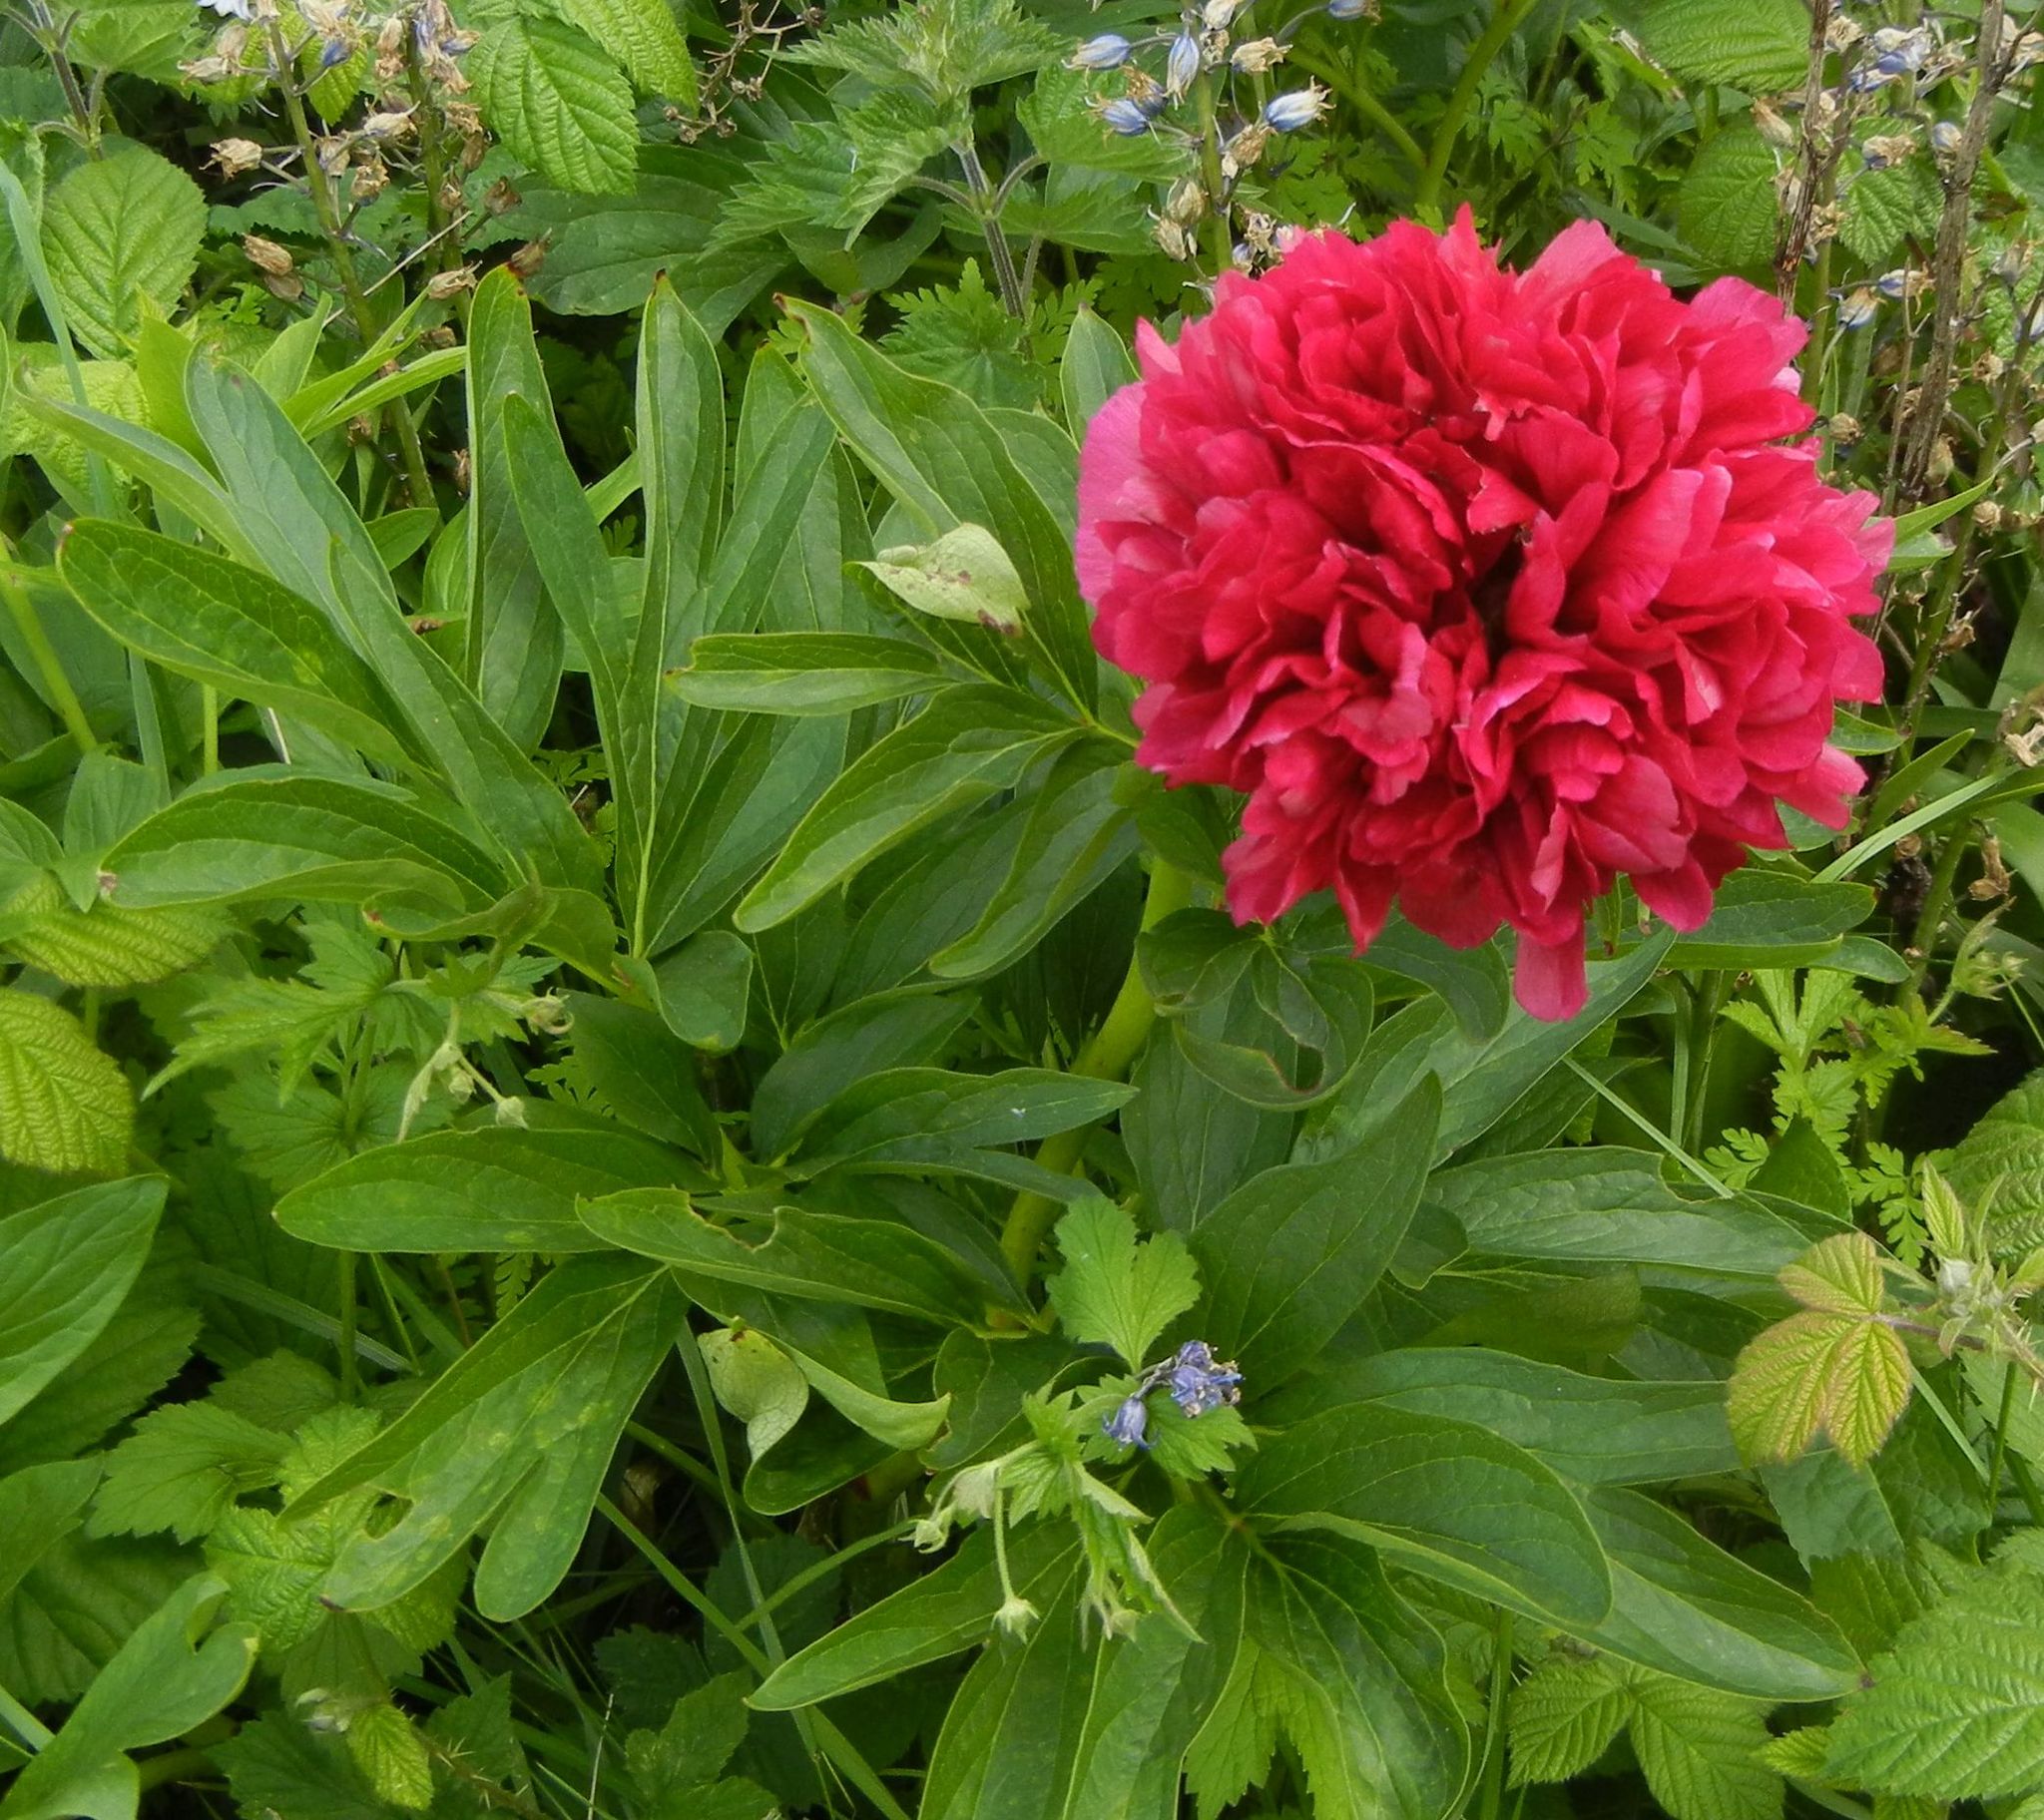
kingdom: Plantae
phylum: Tracheophyta
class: Magnoliopsida
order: Saxifragales
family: Paeoniaceae
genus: Paeonia
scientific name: Paeonia officinalis
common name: Common peony
